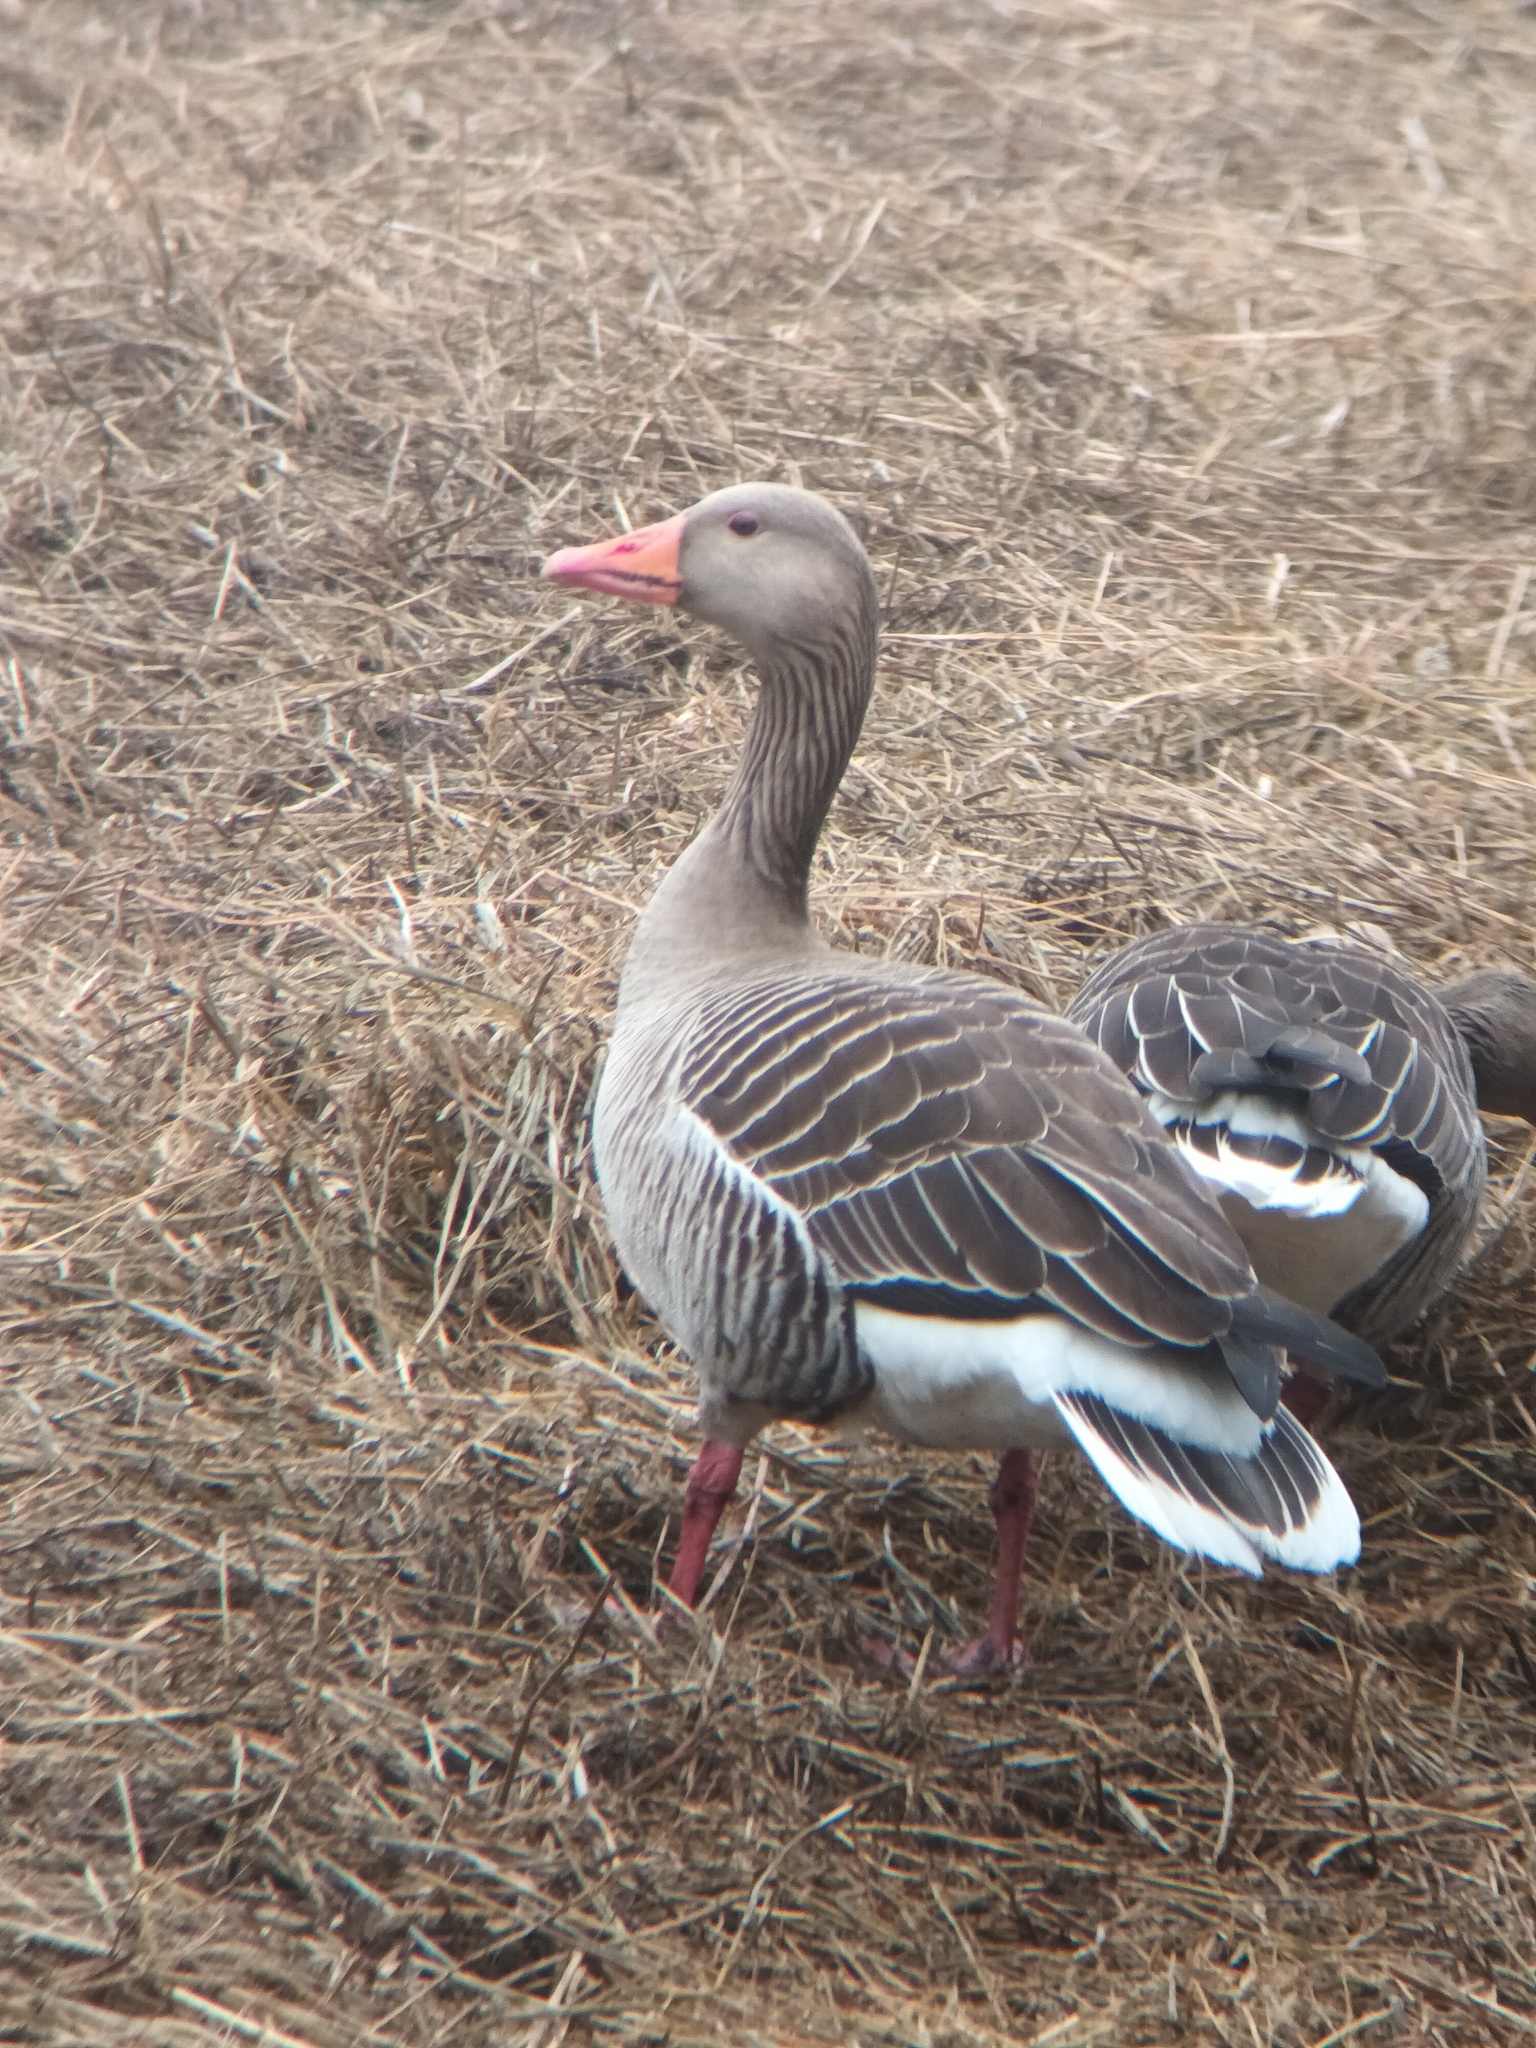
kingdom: Animalia
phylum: Chordata
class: Aves
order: Anseriformes
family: Anatidae
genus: Anser
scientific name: Anser anser
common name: Greylag goose
